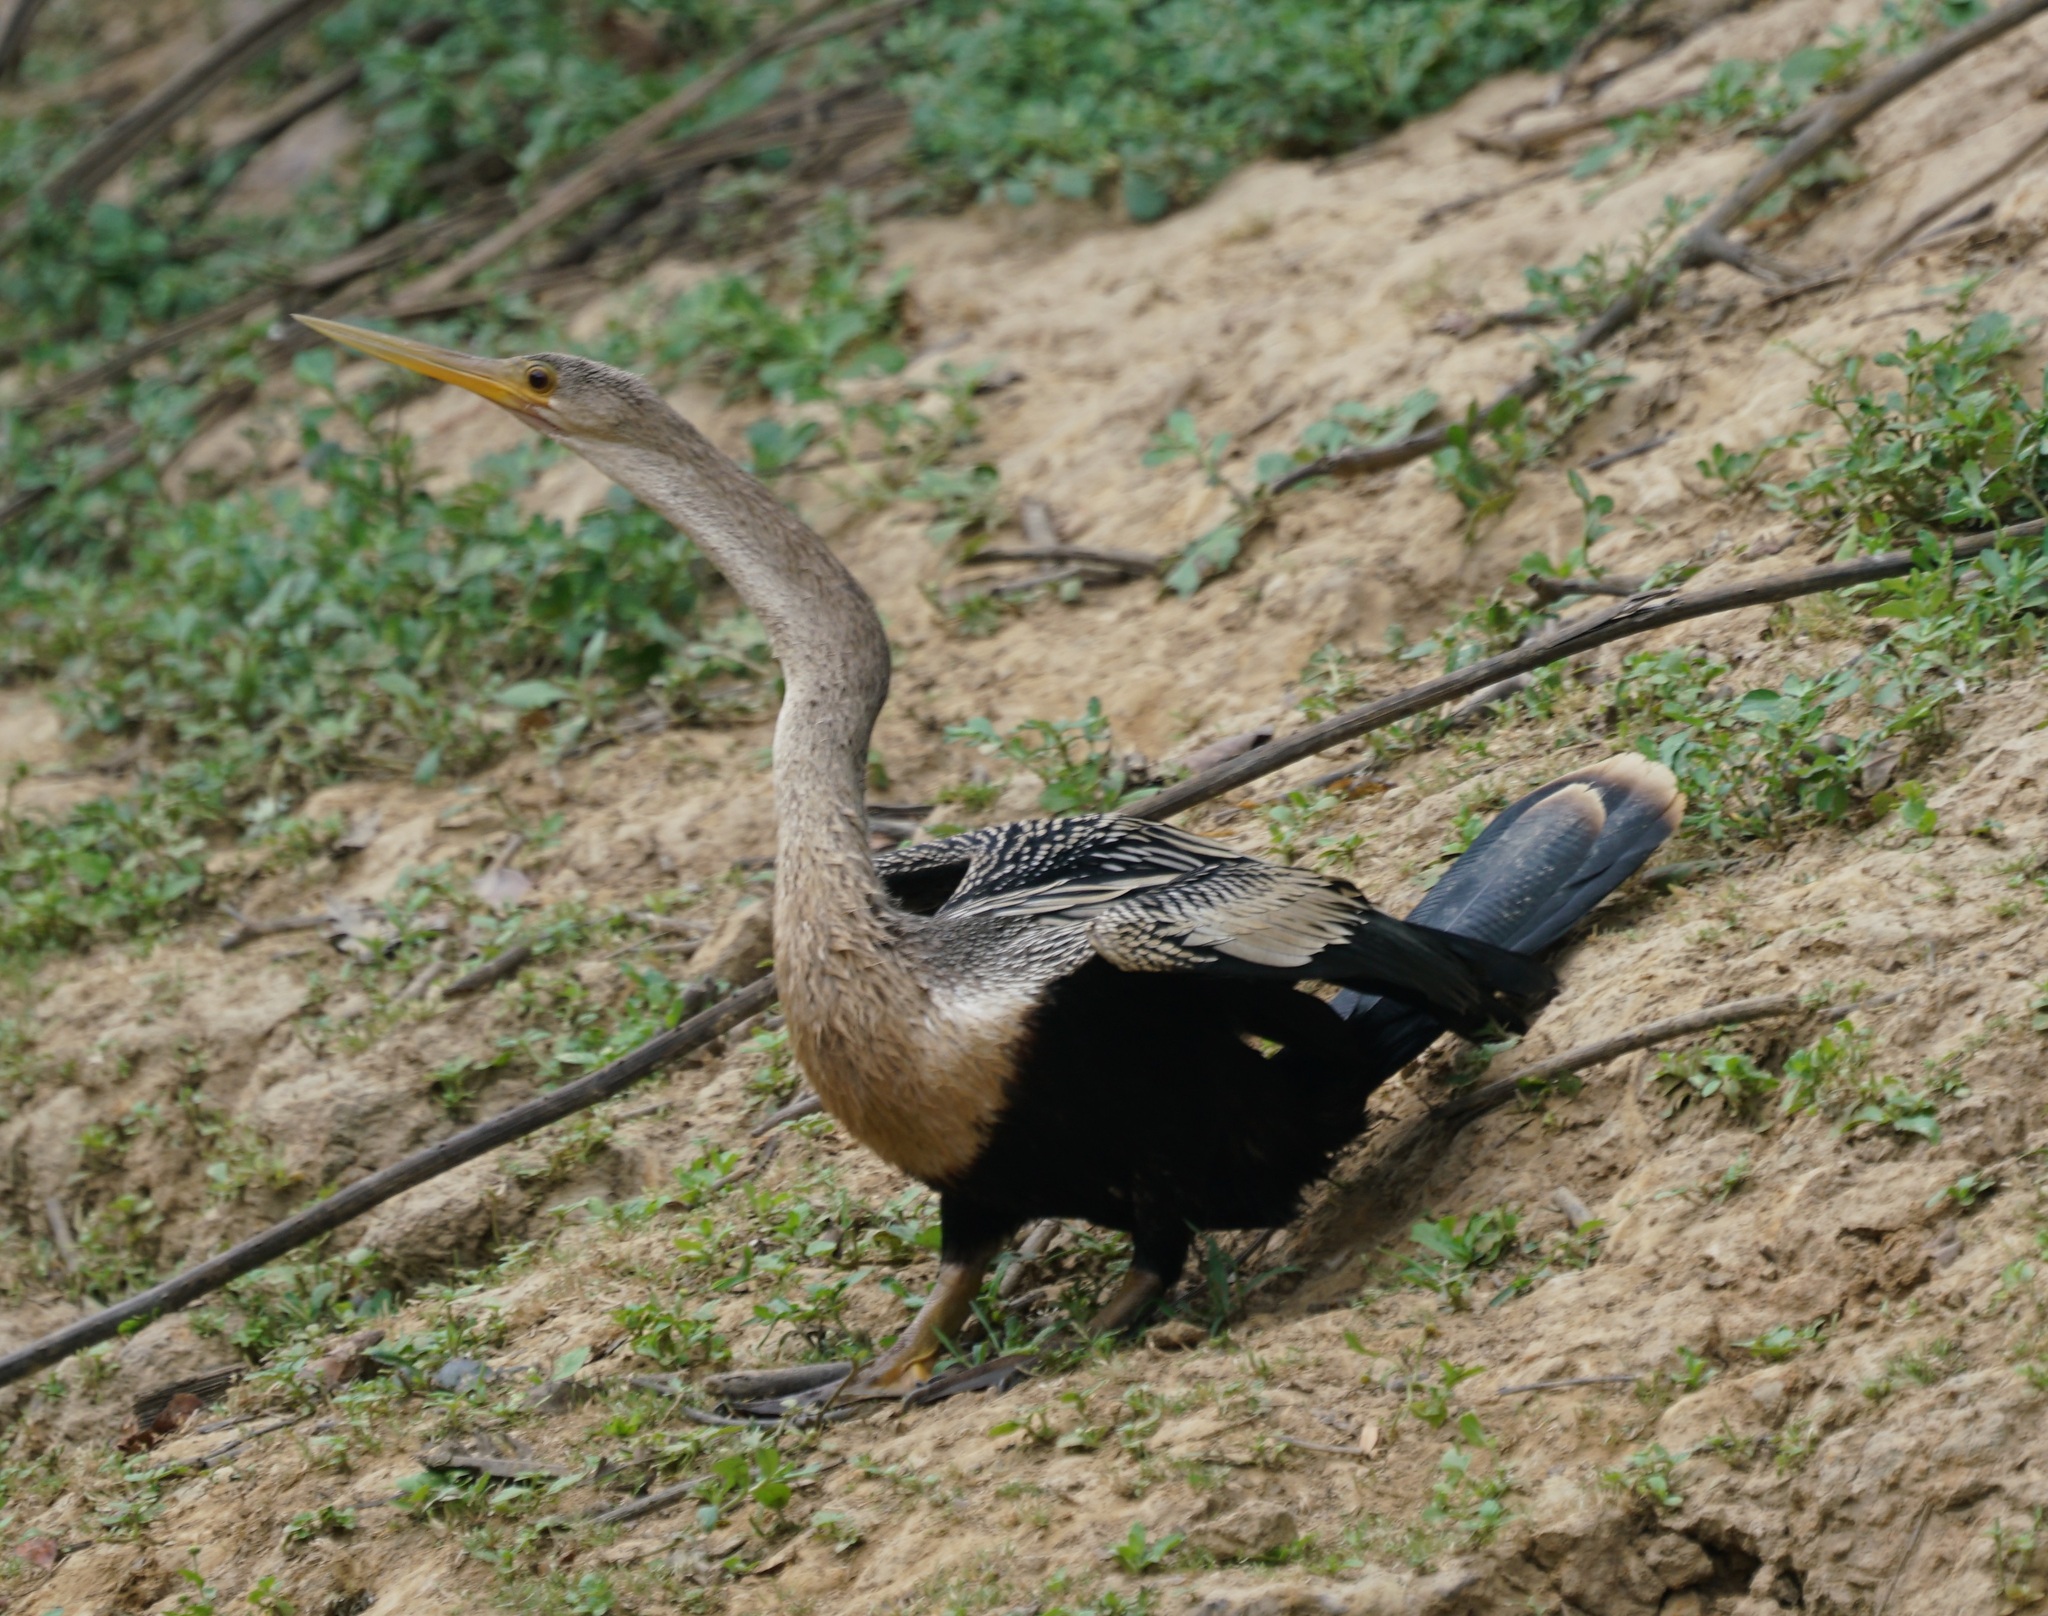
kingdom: Animalia
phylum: Chordata
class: Aves
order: Suliformes
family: Anhingidae
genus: Anhinga
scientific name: Anhinga anhinga
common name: Anhinga
